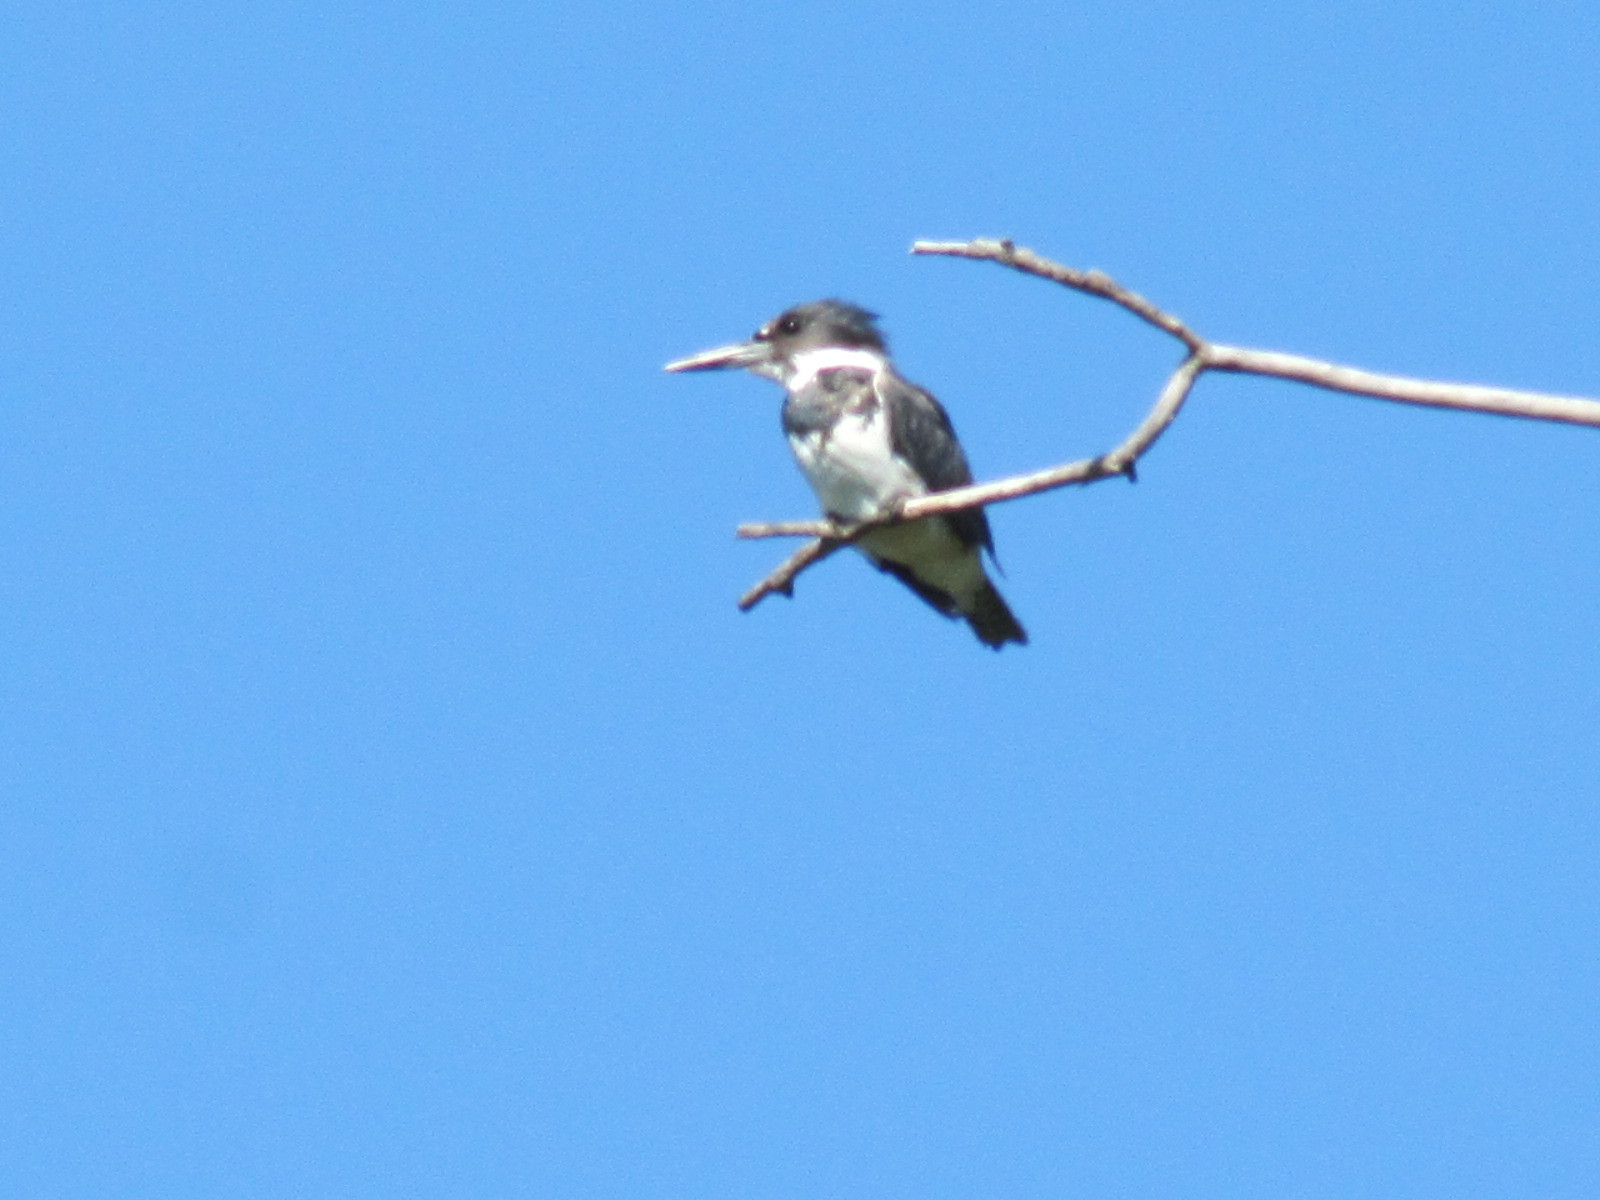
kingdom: Animalia
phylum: Chordata
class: Aves
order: Coraciiformes
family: Alcedinidae
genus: Megaceryle
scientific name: Megaceryle alcyon
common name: Belted kingfisher
